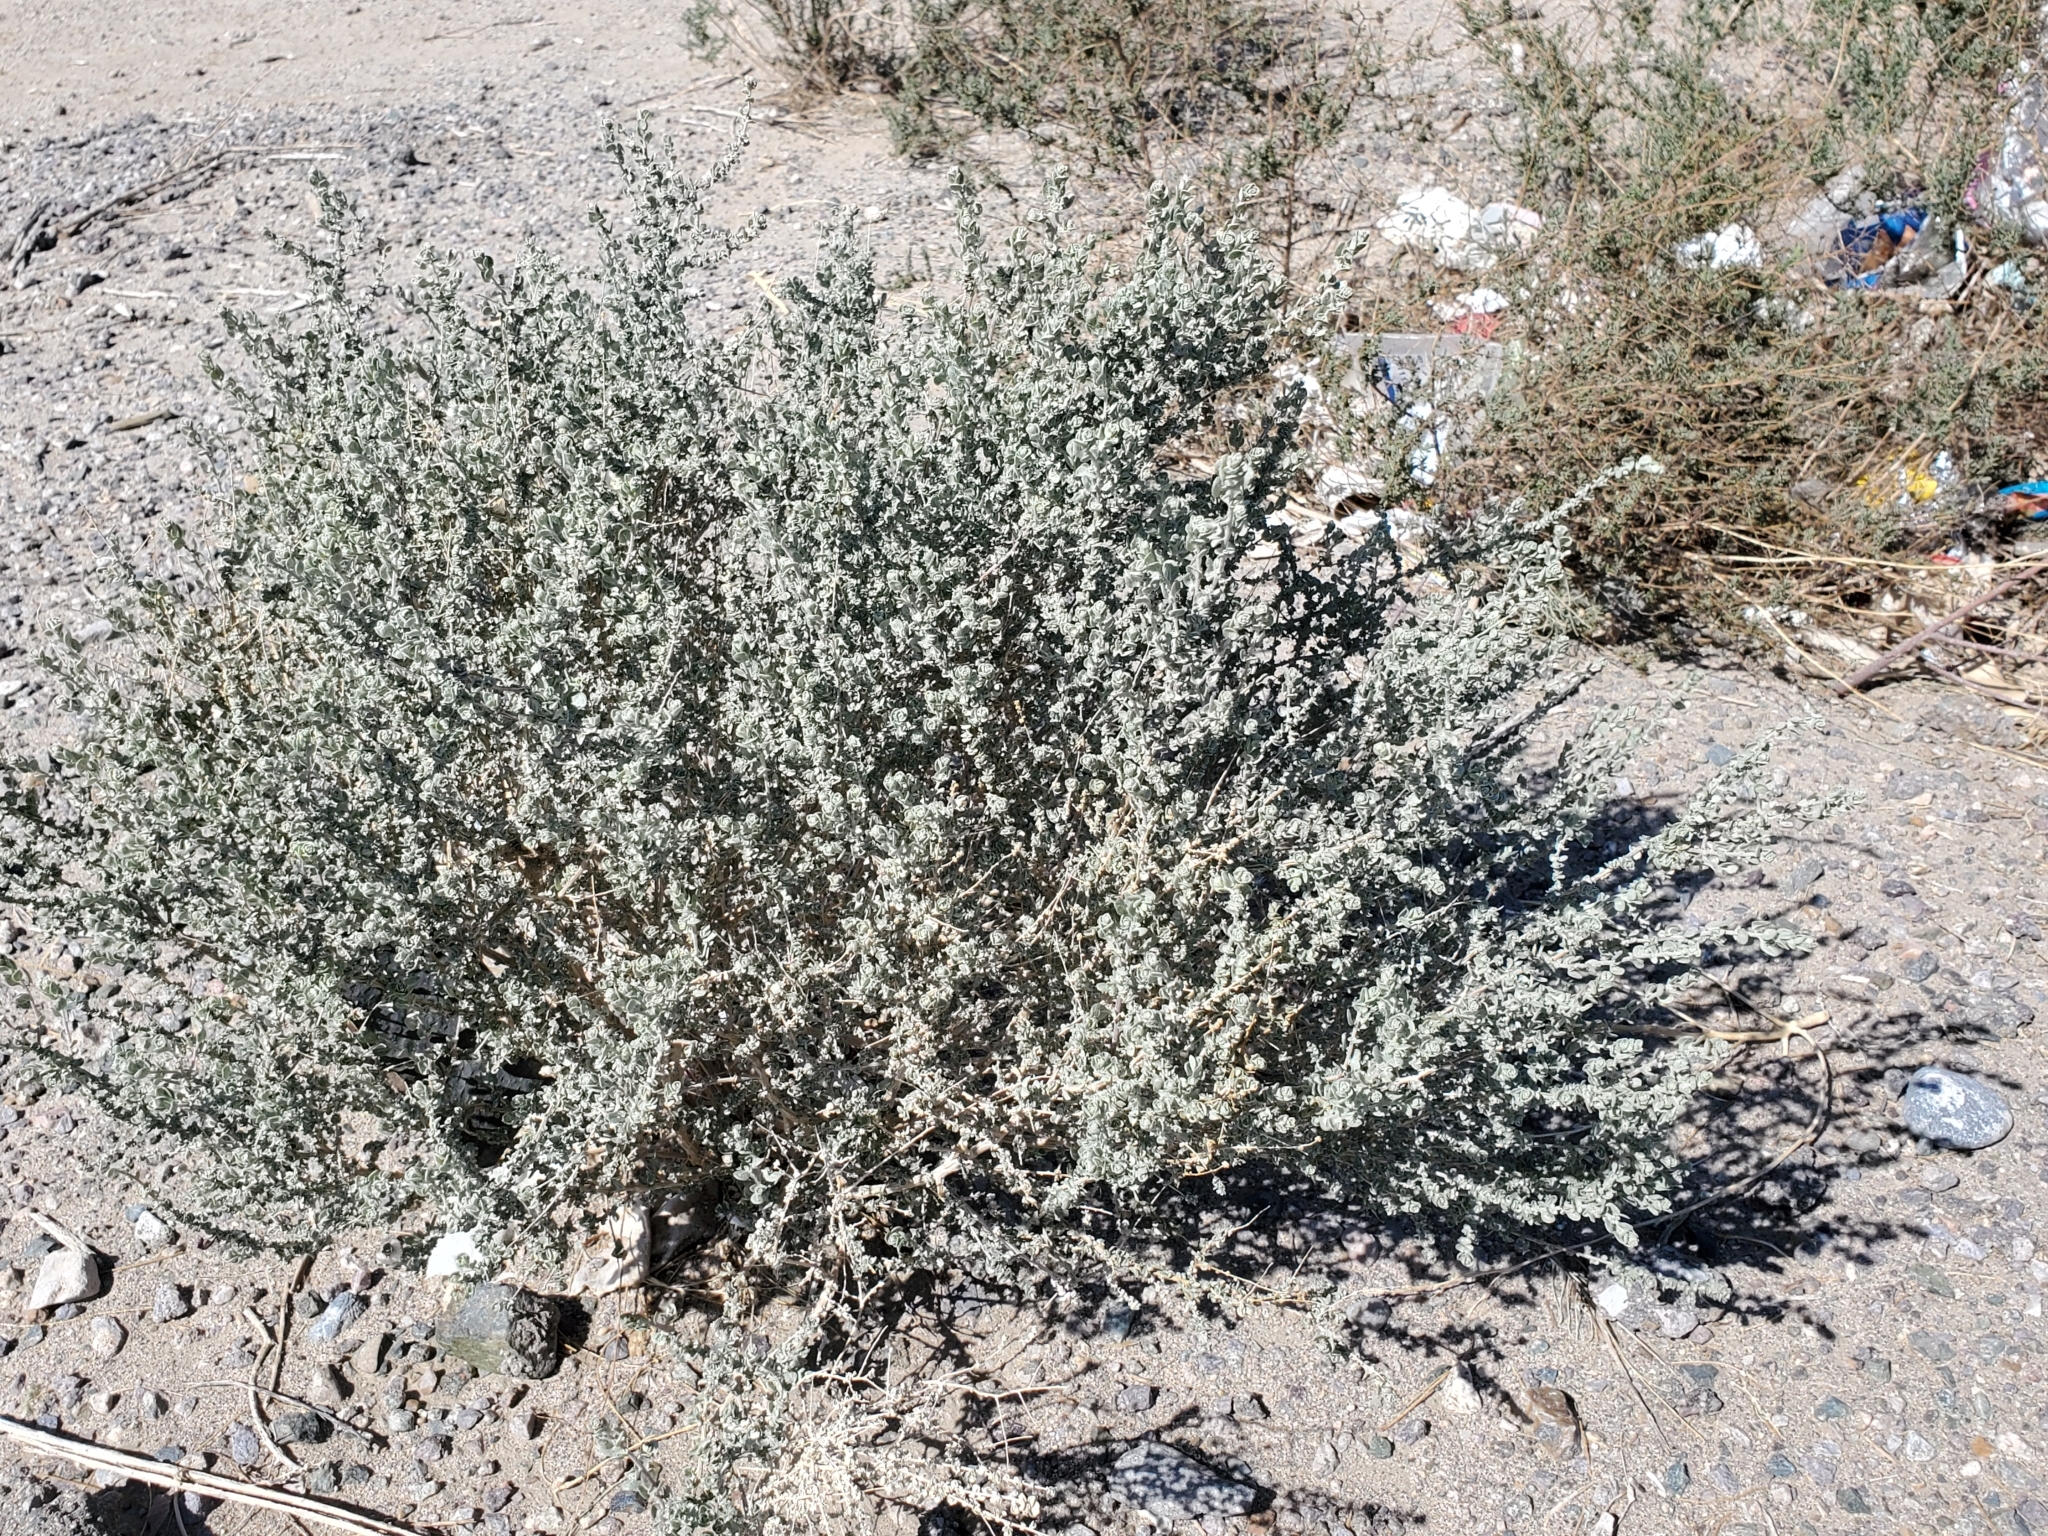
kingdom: Plantae
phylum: Tracheophyta
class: Magnoliopsida
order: Caryophyllales
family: Amaranthaceae
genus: Atriplex
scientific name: Atriplex polycarpa
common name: Desert saltbush
